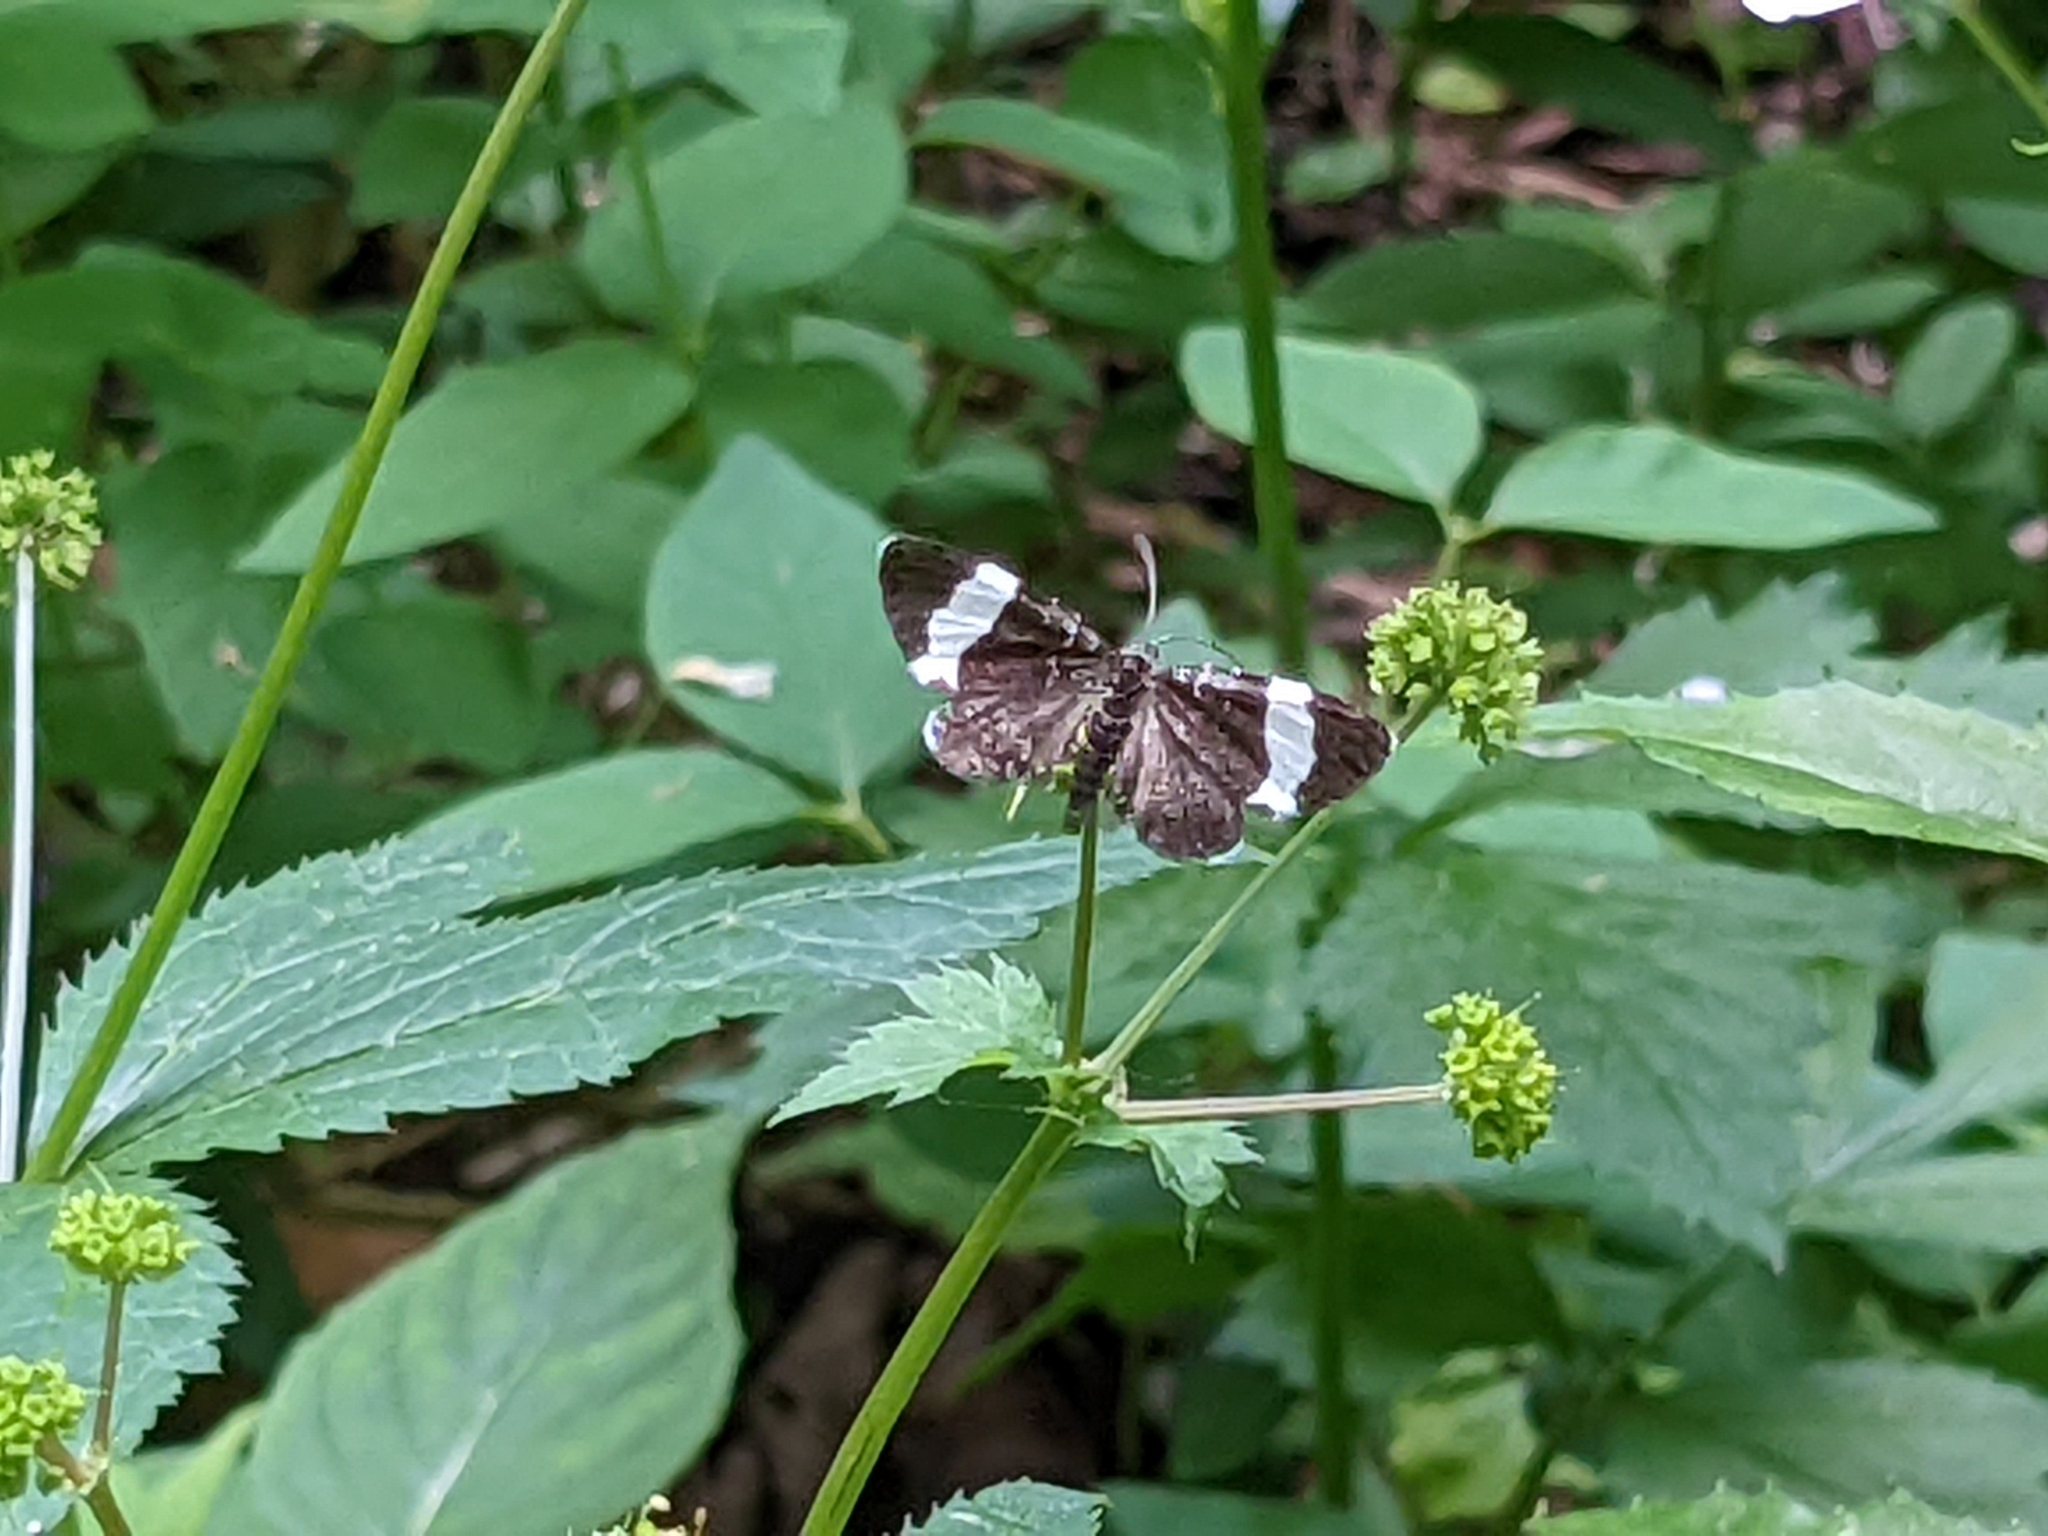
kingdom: Animalia
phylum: Arthropoda
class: Insecta
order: Lepidoptera
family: Geometridae
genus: Trichodezia
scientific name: Trichodezia albovittata
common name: White striped black
